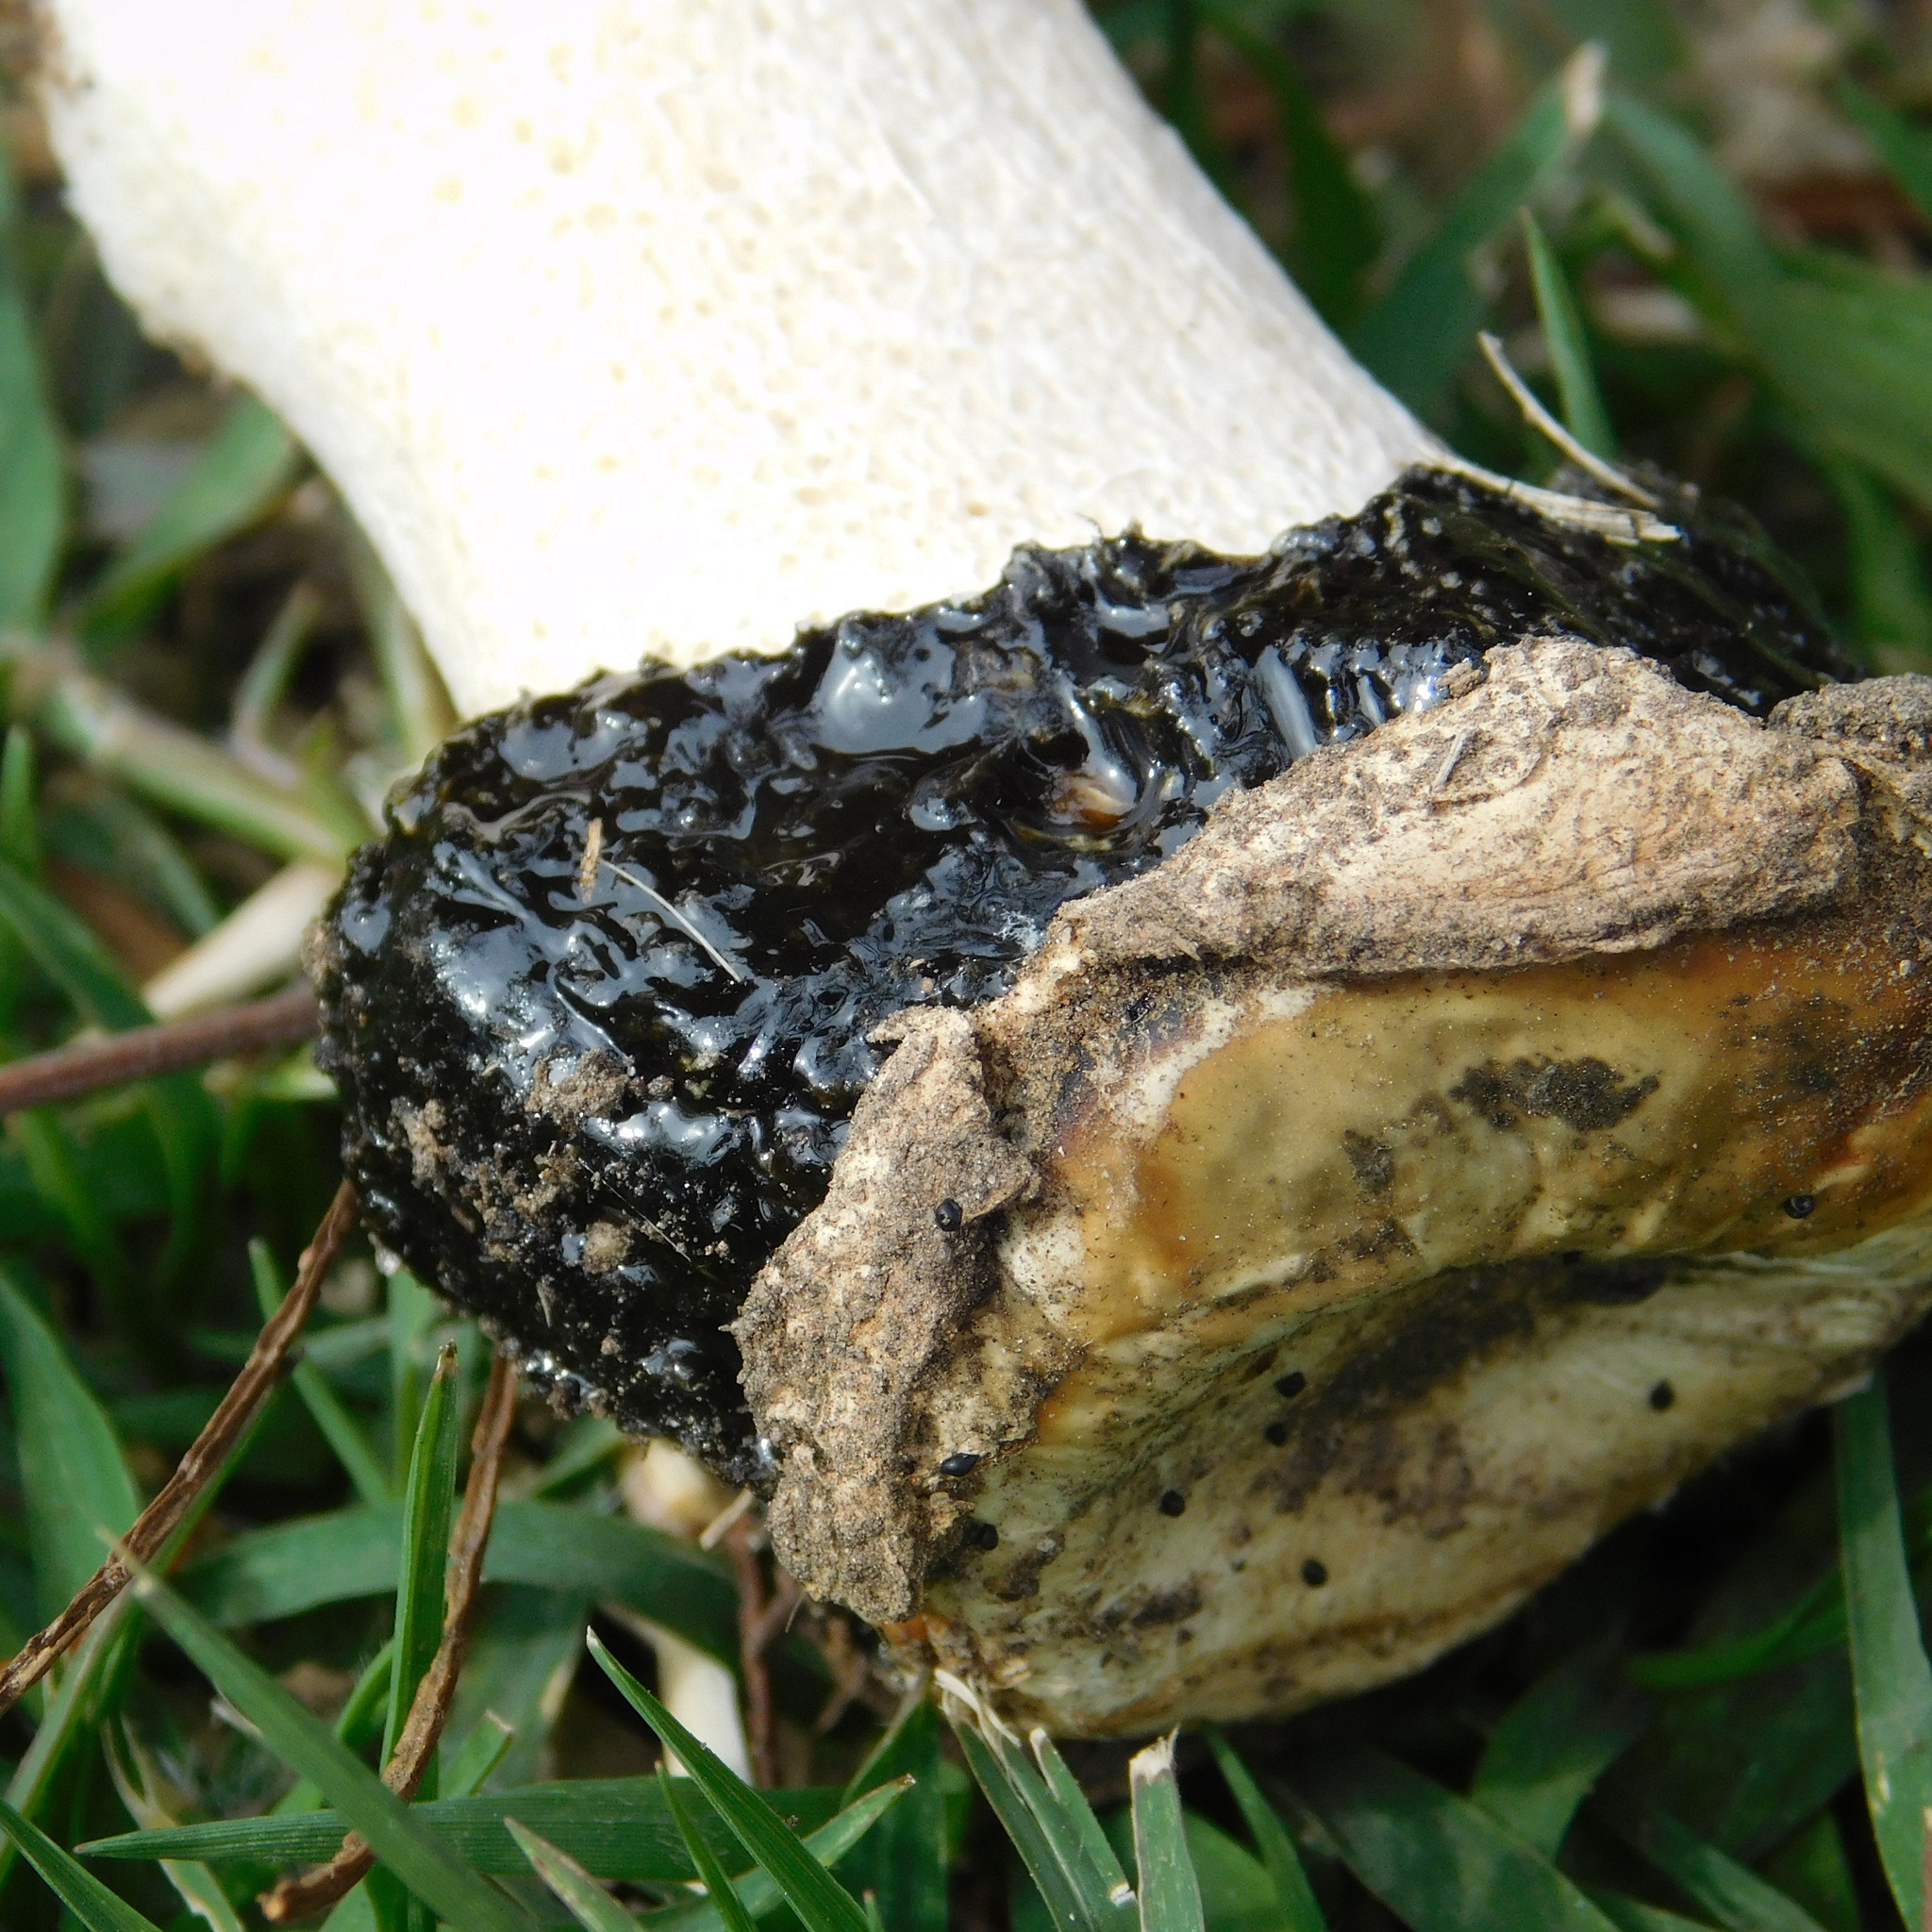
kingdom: Fungi
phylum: Basidiomycota
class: Agaricomycetes
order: Phallales
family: Phallaceae
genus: Itajahya
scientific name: Itajahya galericulata
